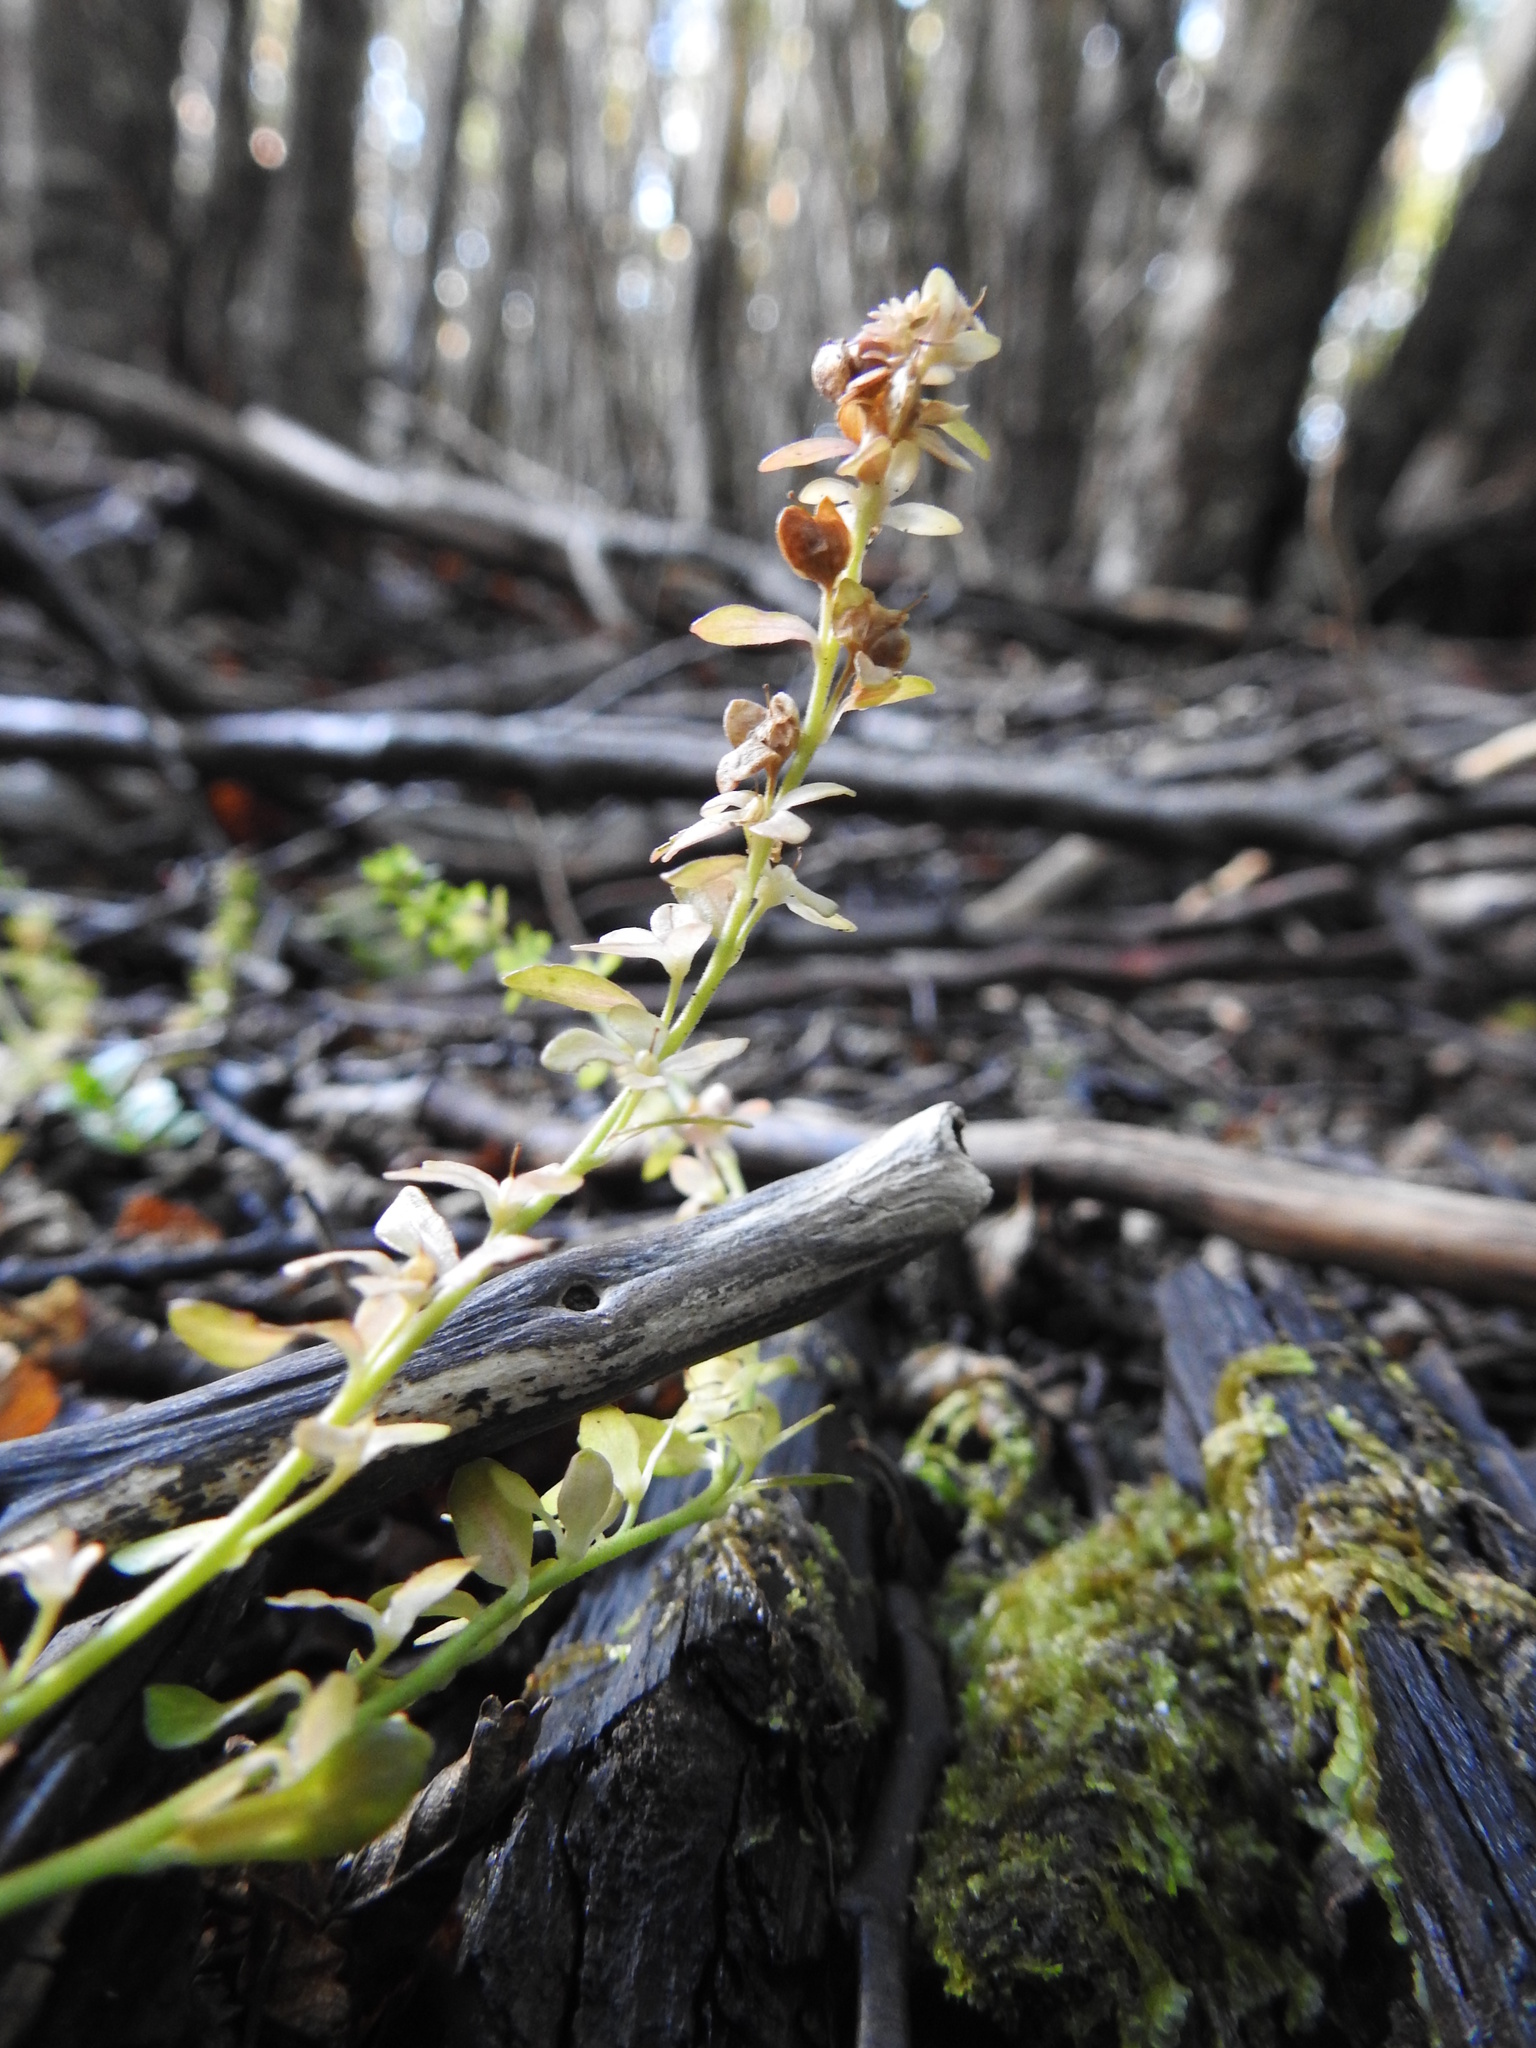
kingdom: Plantae
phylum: Tracheophyta
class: Magnoliopsida
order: Lamiales
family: Plantaginaceae
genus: Veronica
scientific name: Veronica serpyllifolia
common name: Thyme-leaved speedwell
